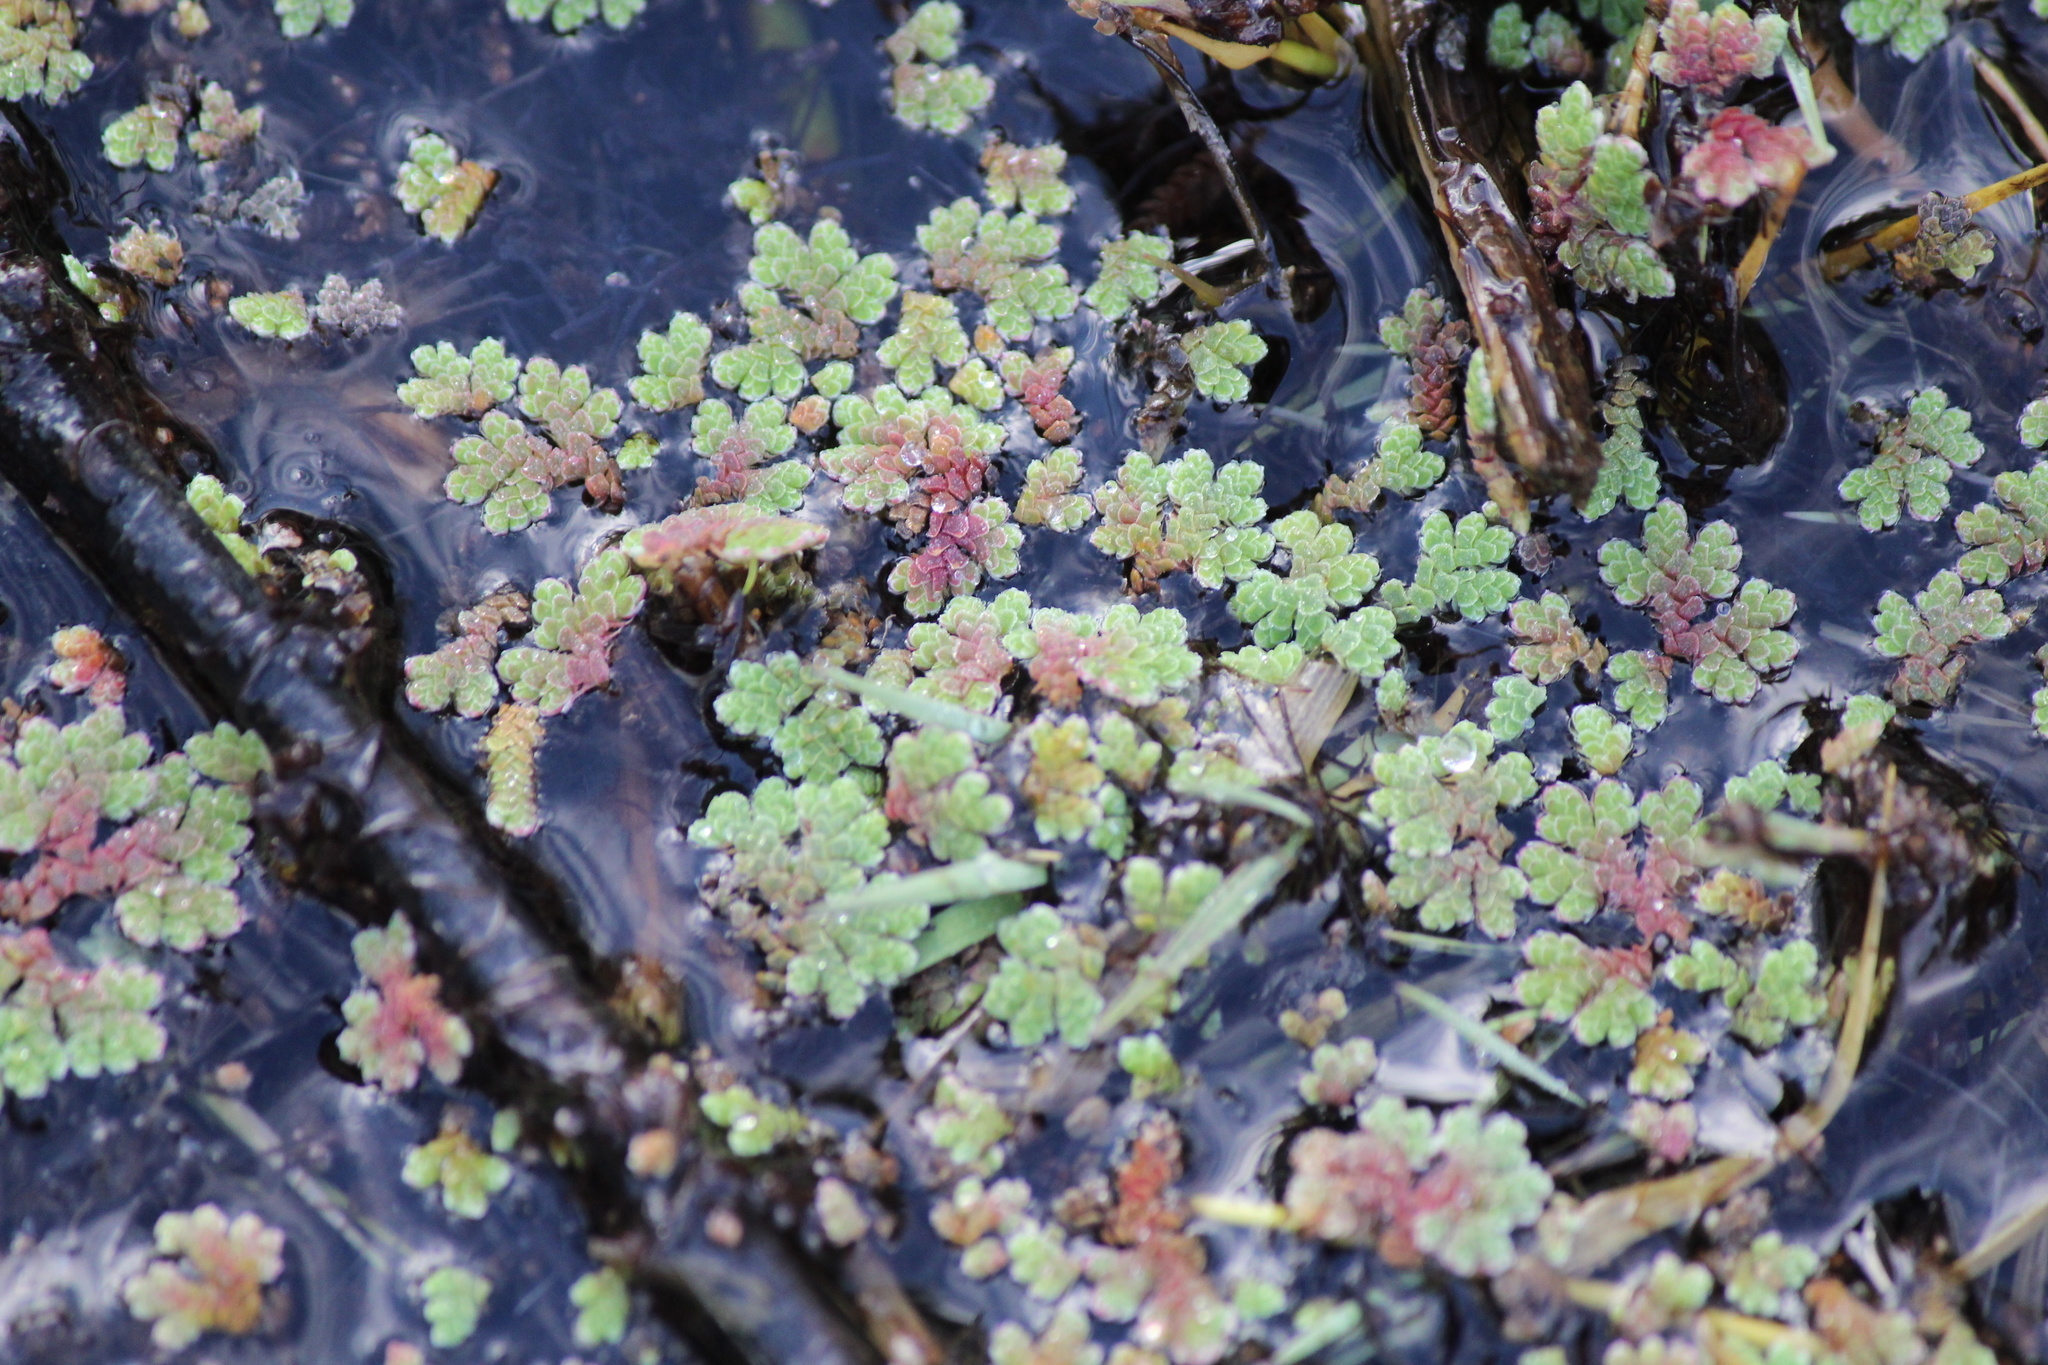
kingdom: Plantae
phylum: Tracheophyta
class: Polypodiopsida
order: Salviniales
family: Salviniaceae
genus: Azolla
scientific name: Azolla filiculoides
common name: Water fern
